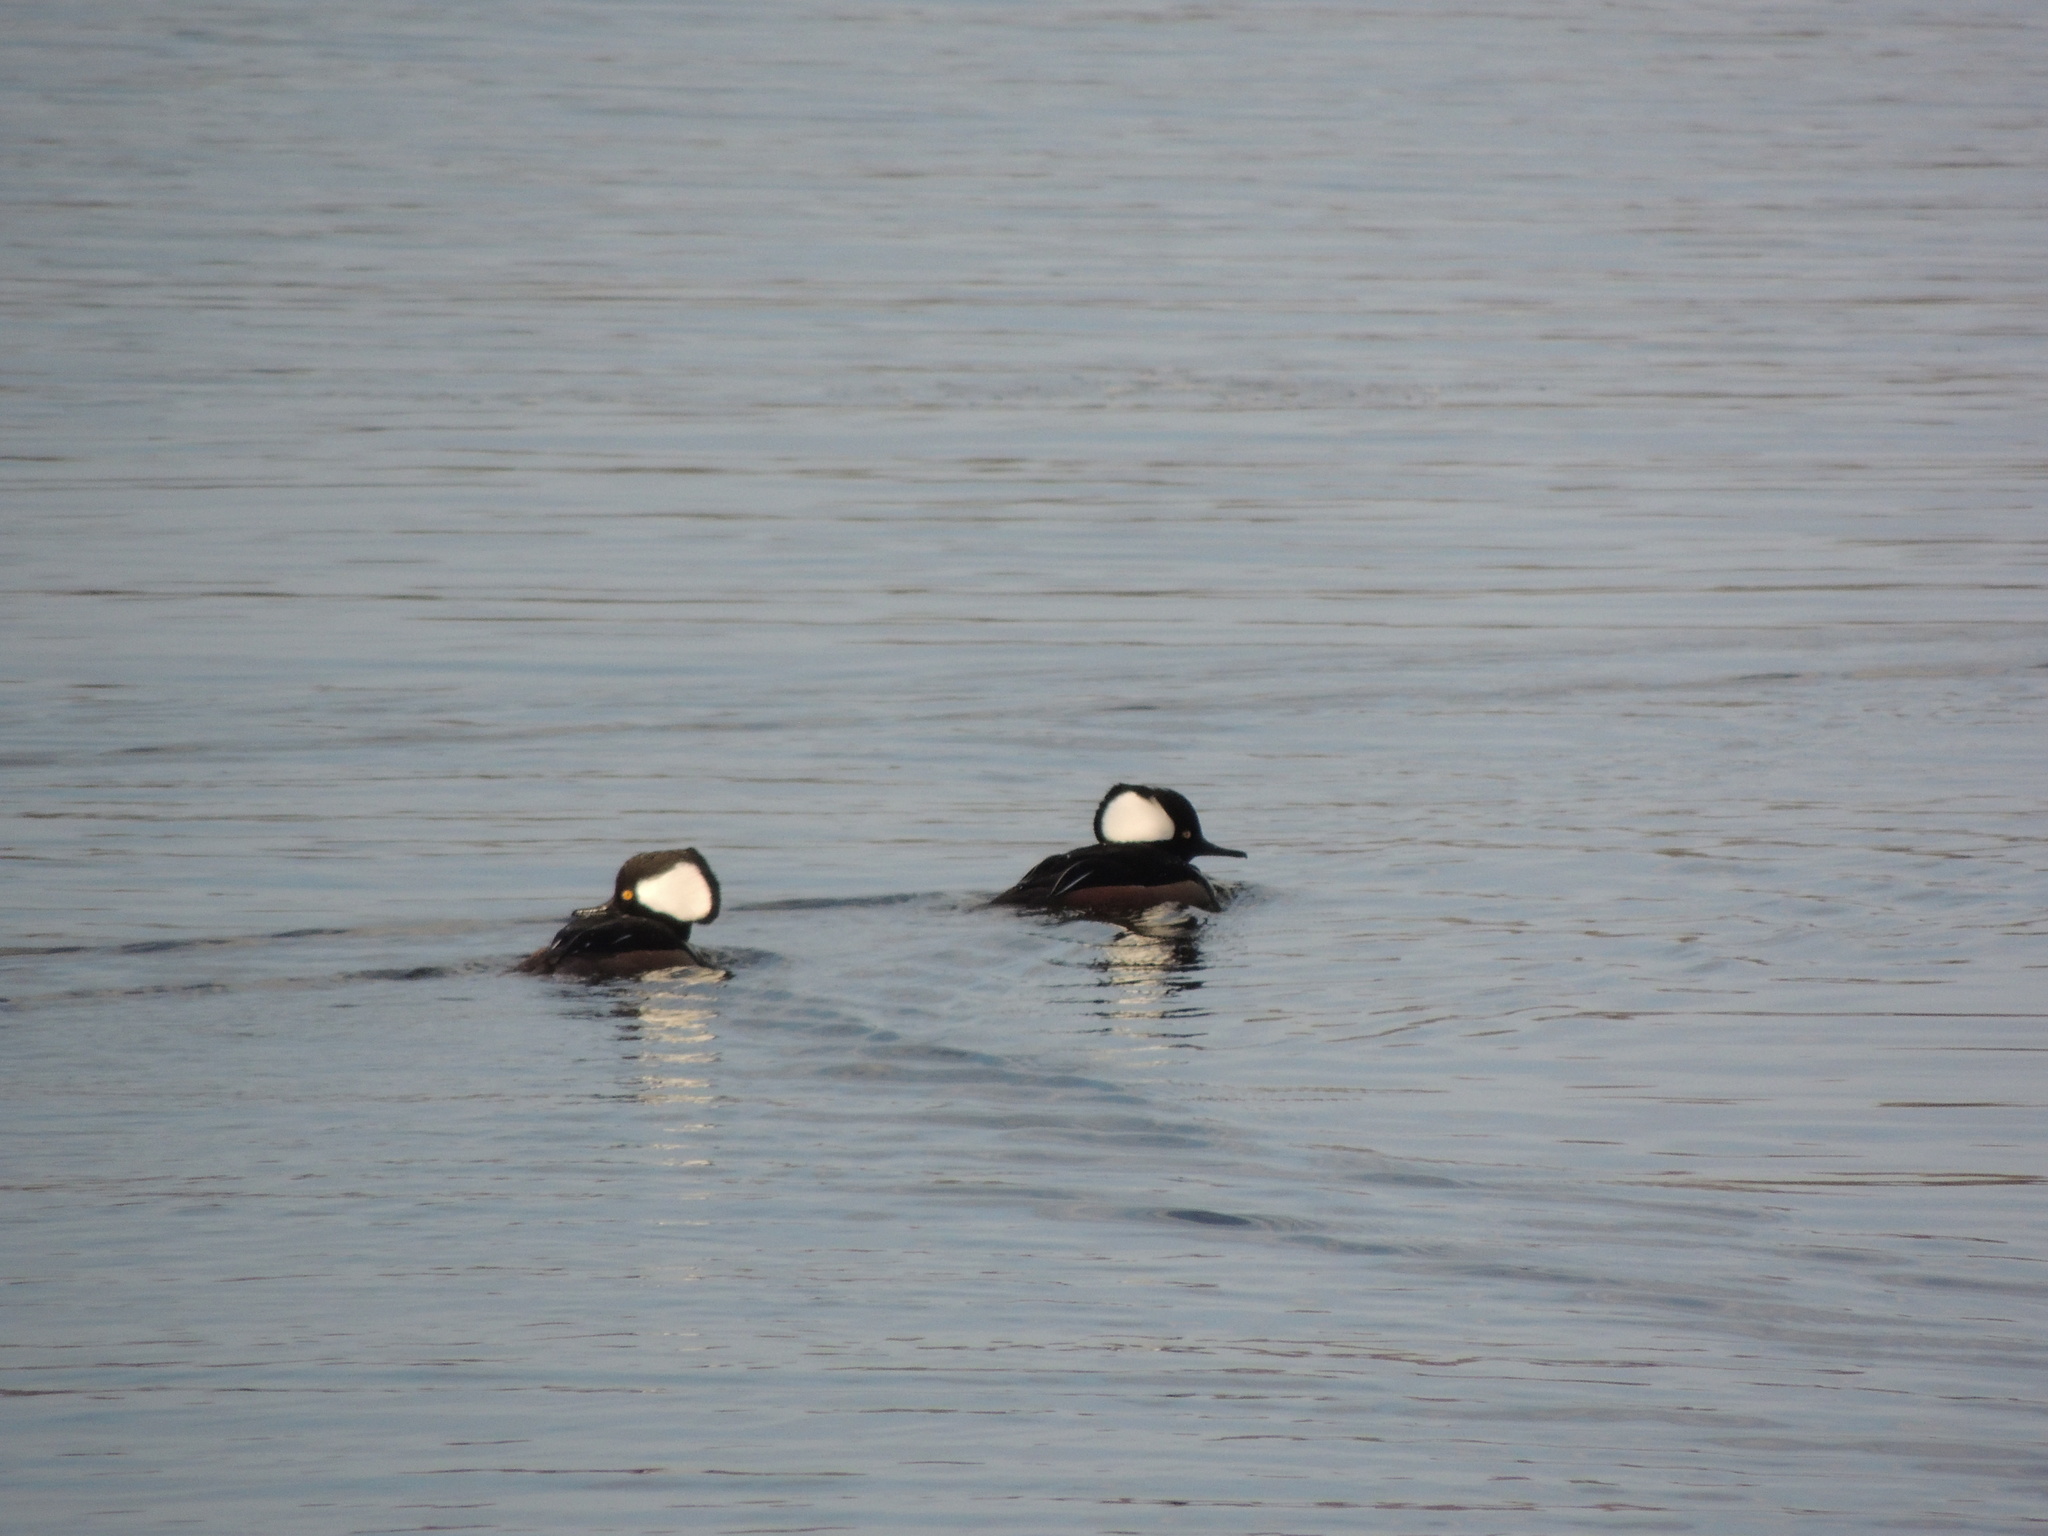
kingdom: Animalia
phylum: Chordata
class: Aves
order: Anseriformes
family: Anatidae
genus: Lophodytes
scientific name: Lophodytes cucullatus
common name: Hooded merganser
